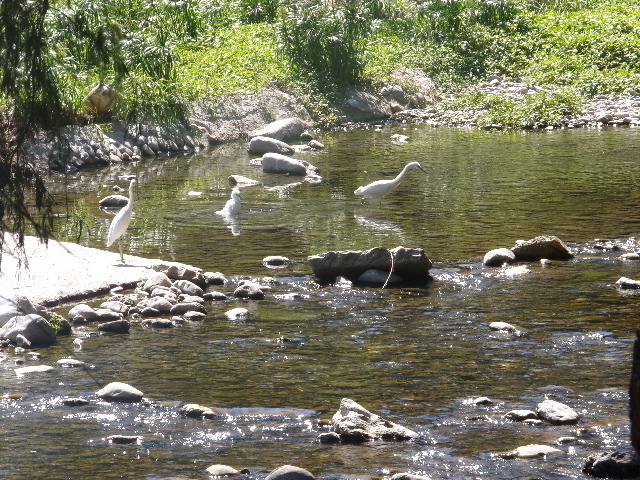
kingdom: Animalia
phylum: Chordata
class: Aves
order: Pelecaniformes
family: Ardeidae
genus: Egretta
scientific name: Egretta thula
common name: Snowy egret
